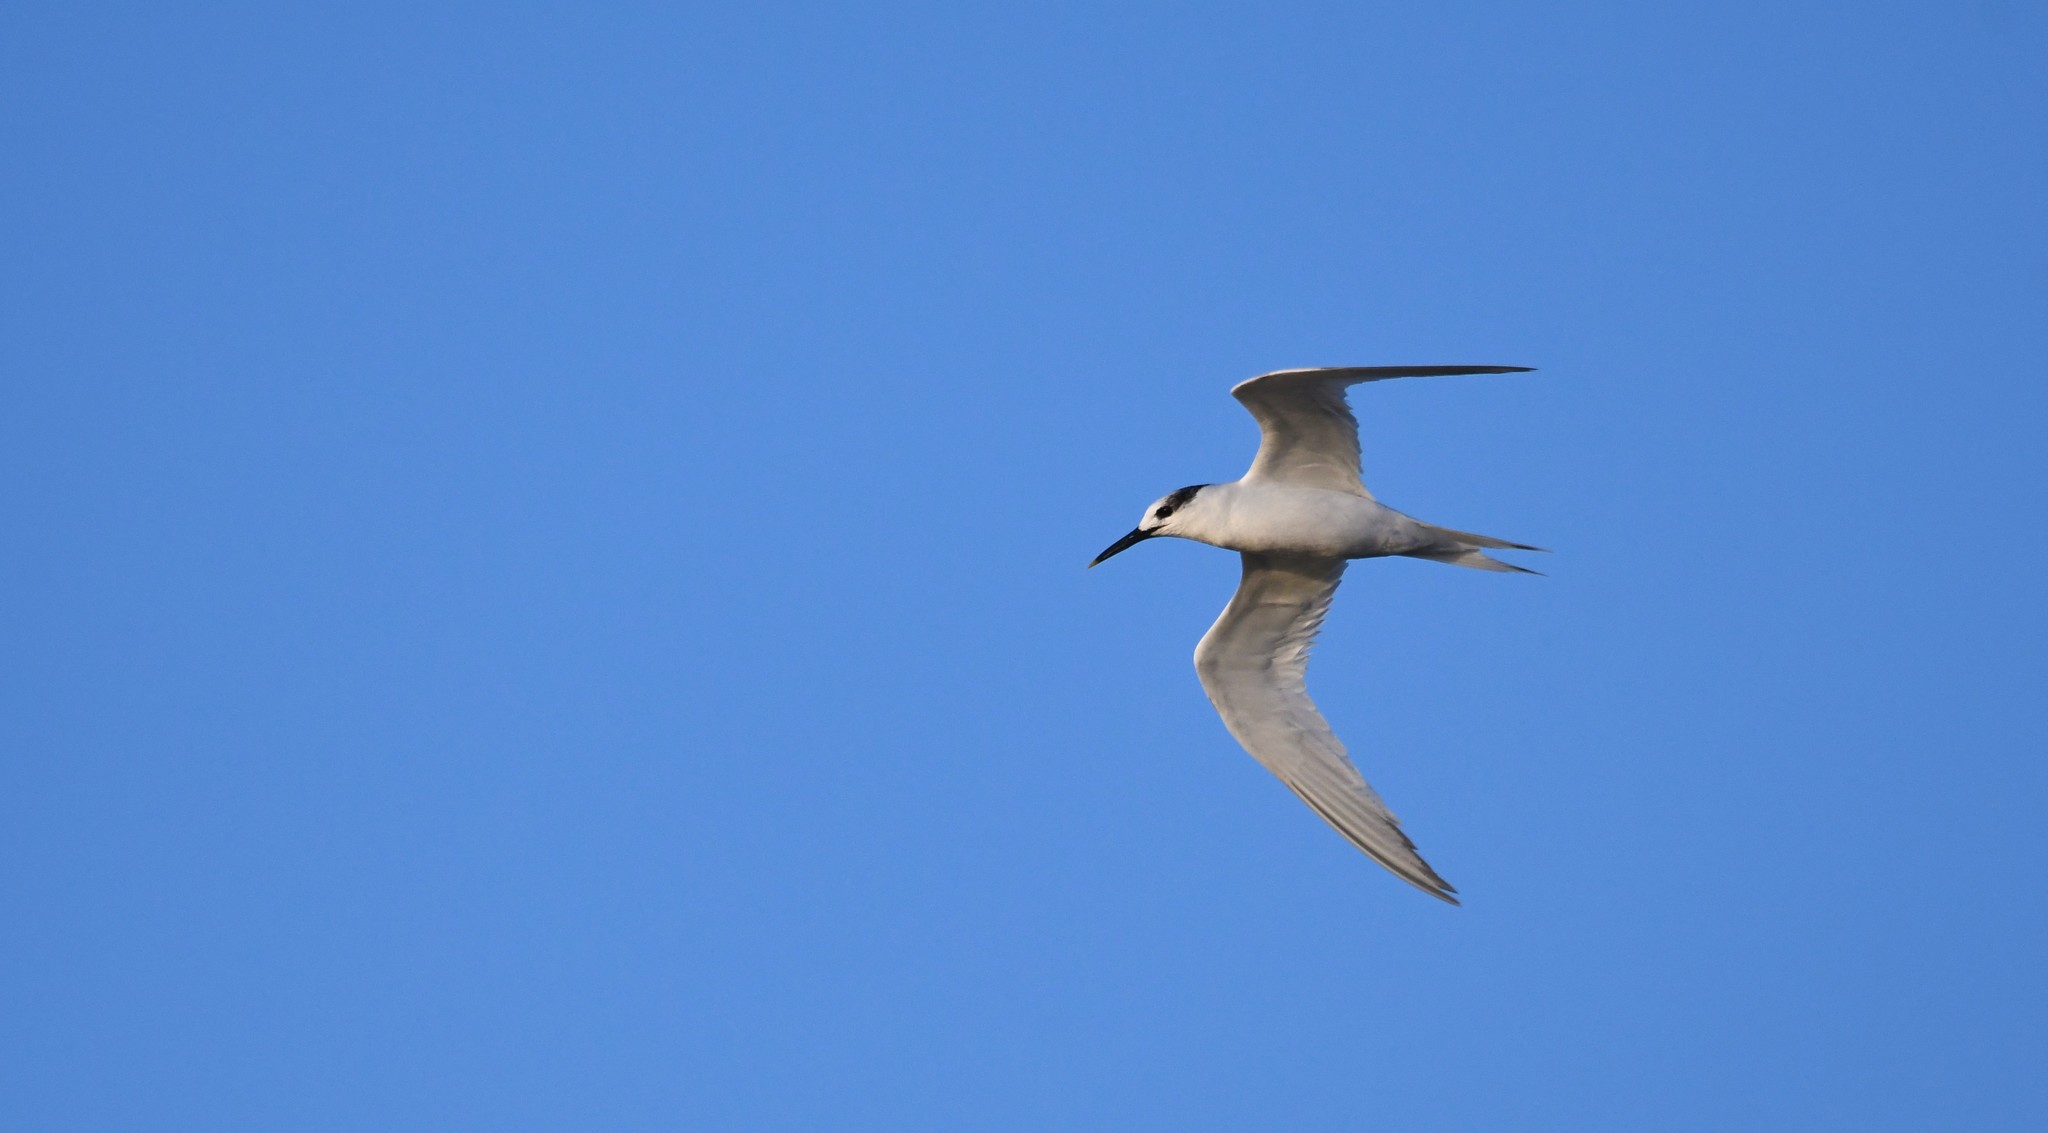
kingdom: Animalia
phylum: Chordata
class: Aves
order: Charadriiformes
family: Laridae
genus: Thalasseus
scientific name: Thalasseus sandvicensis
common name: Sandwich tern
